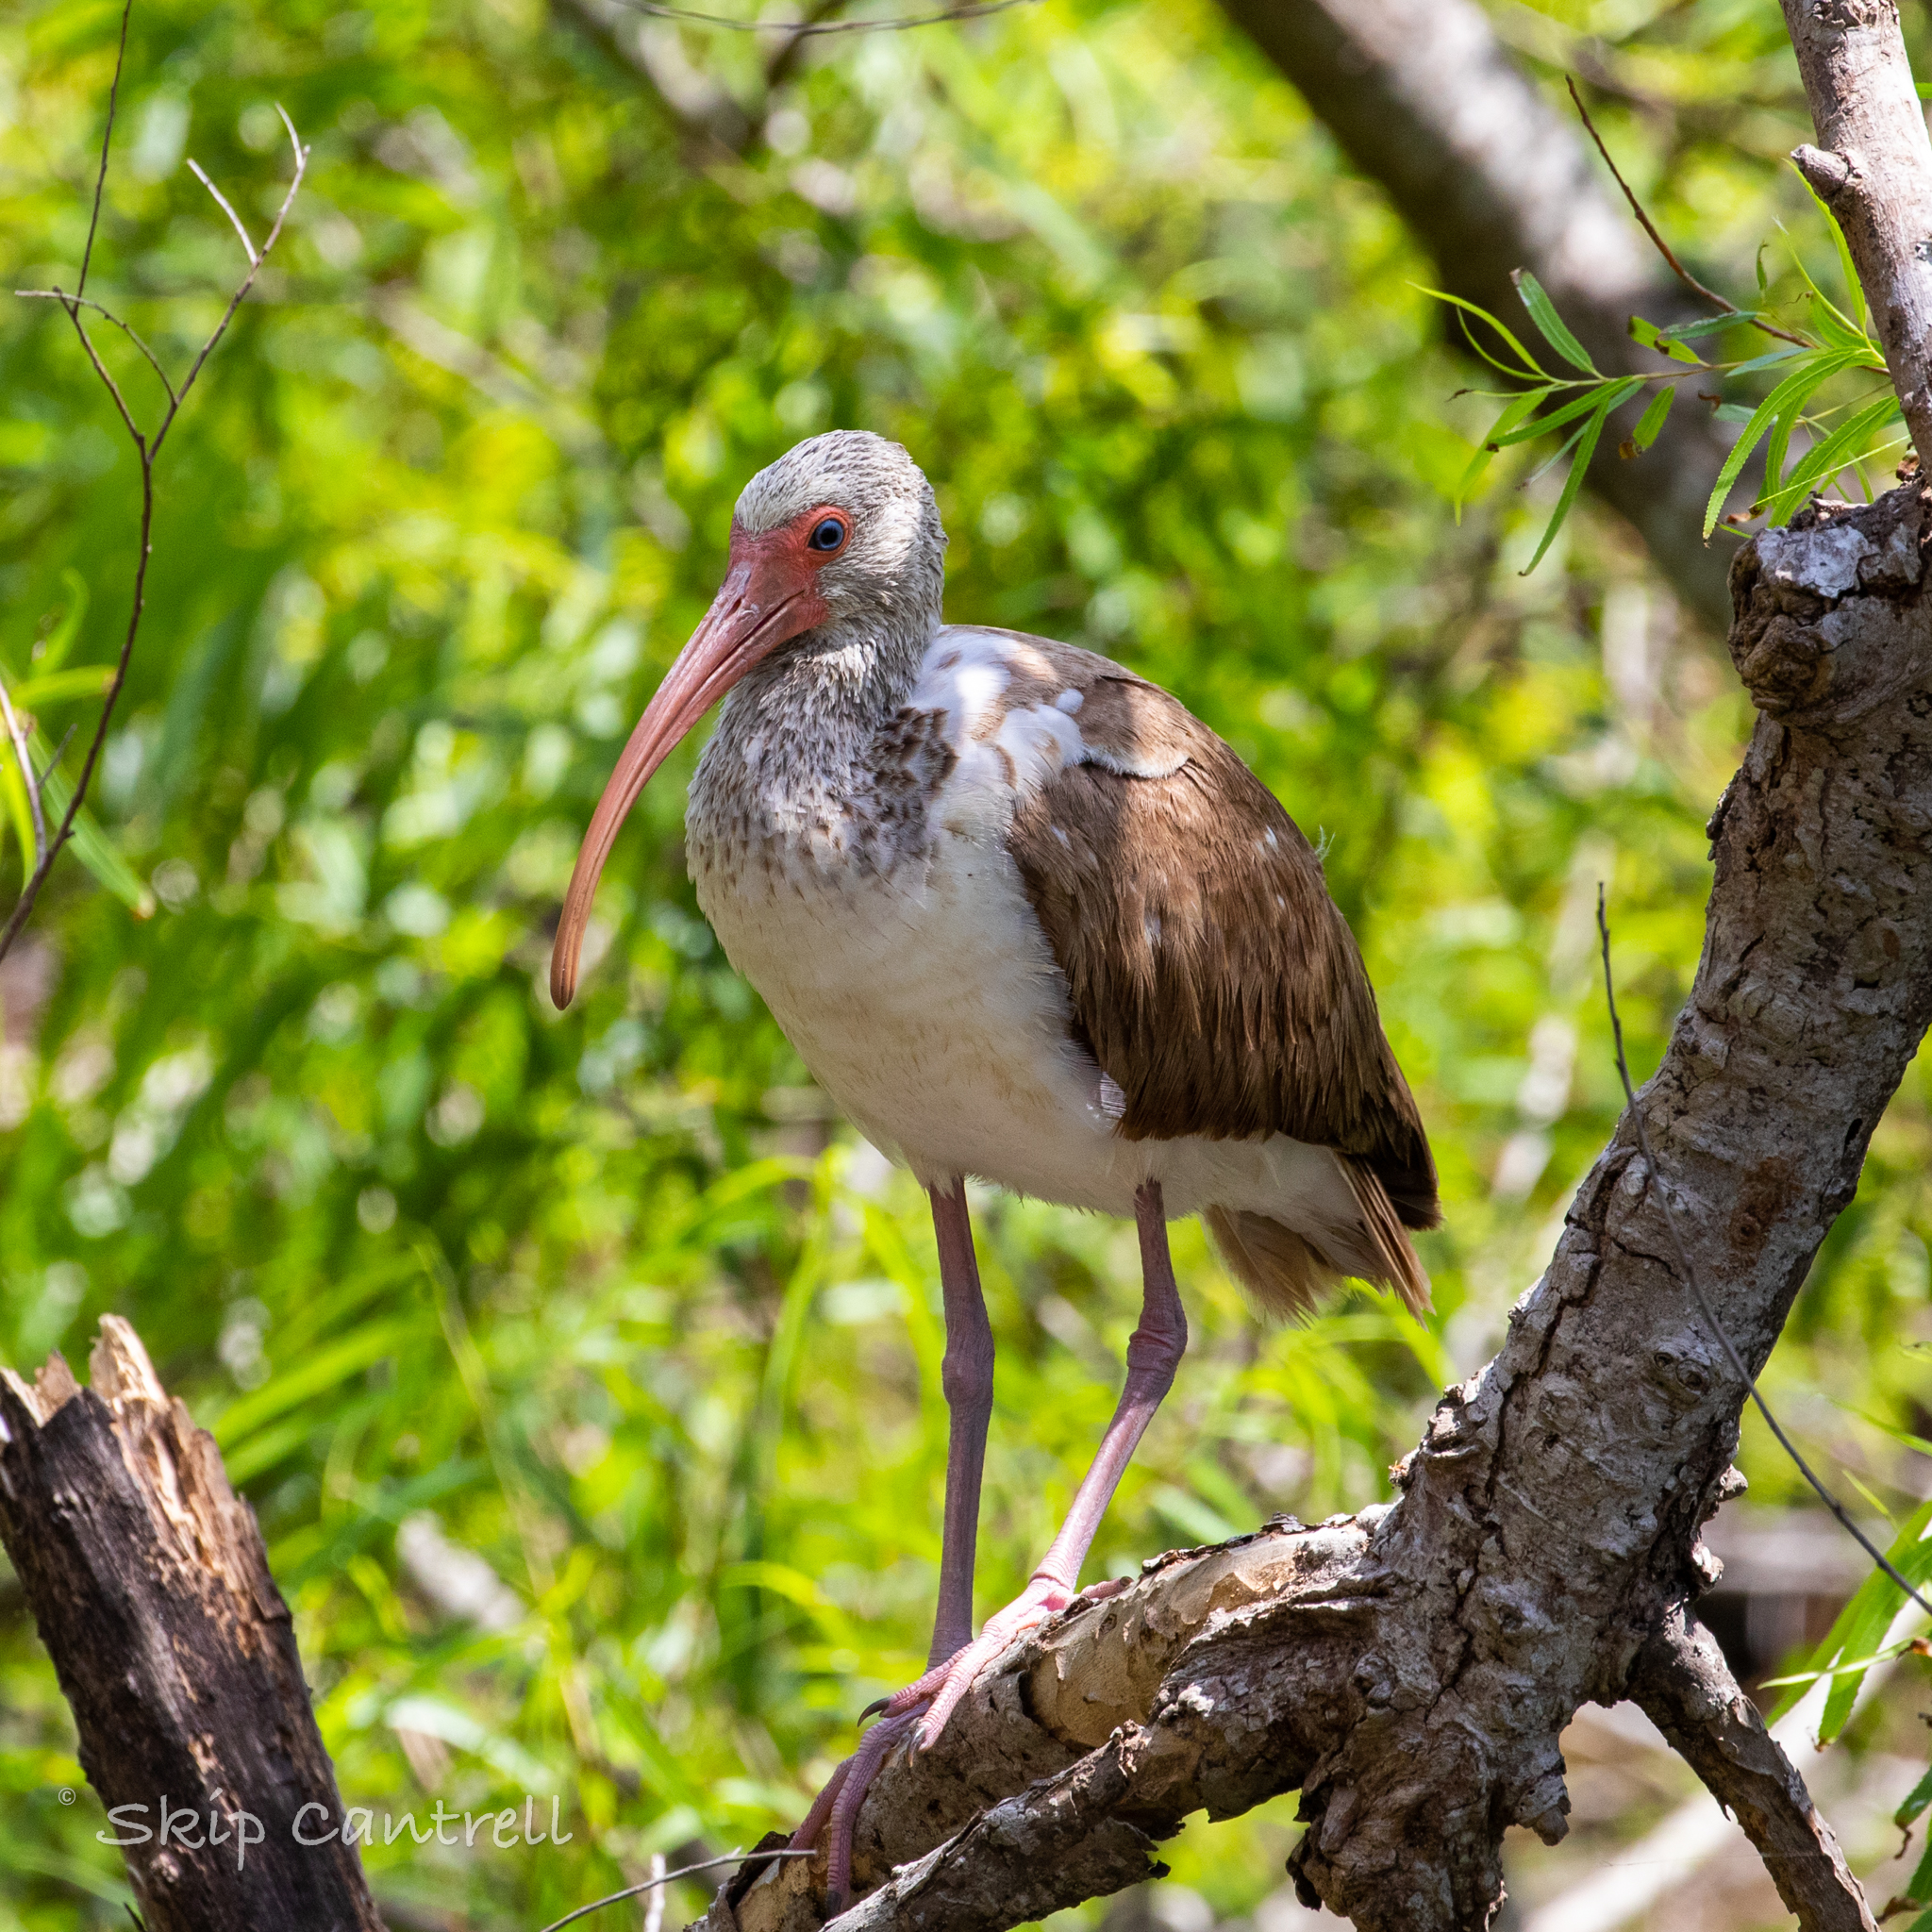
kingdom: Animalia
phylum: Chordata
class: Aves
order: Pelecaniformes
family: Threskiornithidae
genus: Eudocimus
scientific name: Eudocimus albus
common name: White ibis
